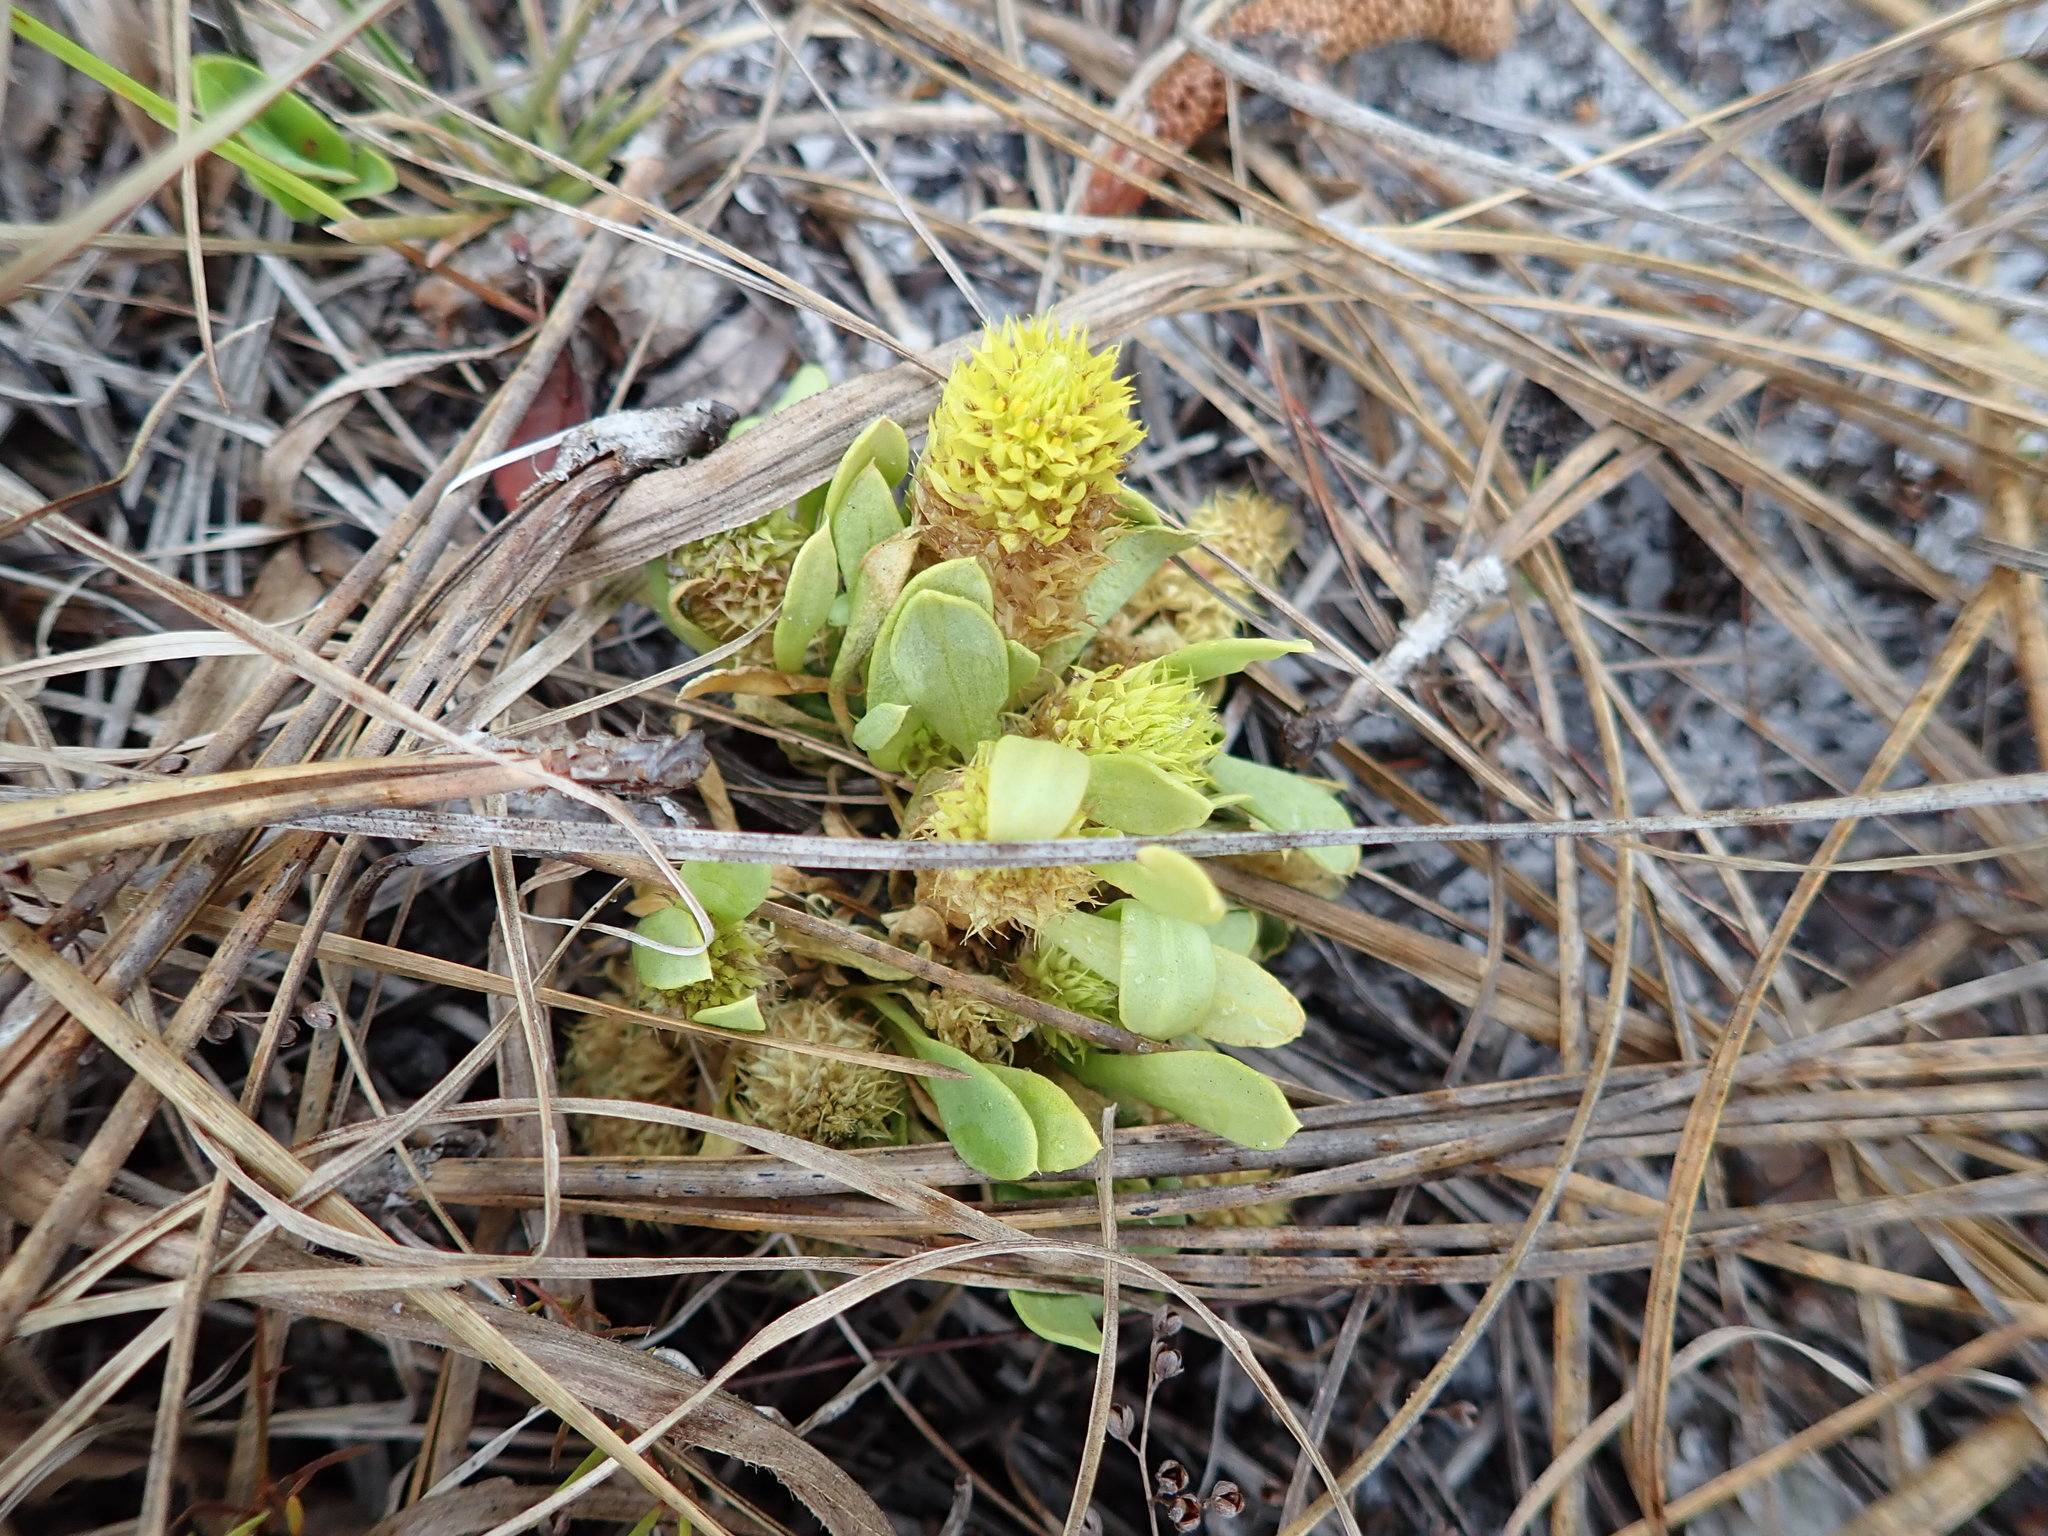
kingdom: Plantae
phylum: Tracheophyta
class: Magnoliopsida
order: Fabales
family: Polygalaceae
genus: Polygala
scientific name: Polygala nana
